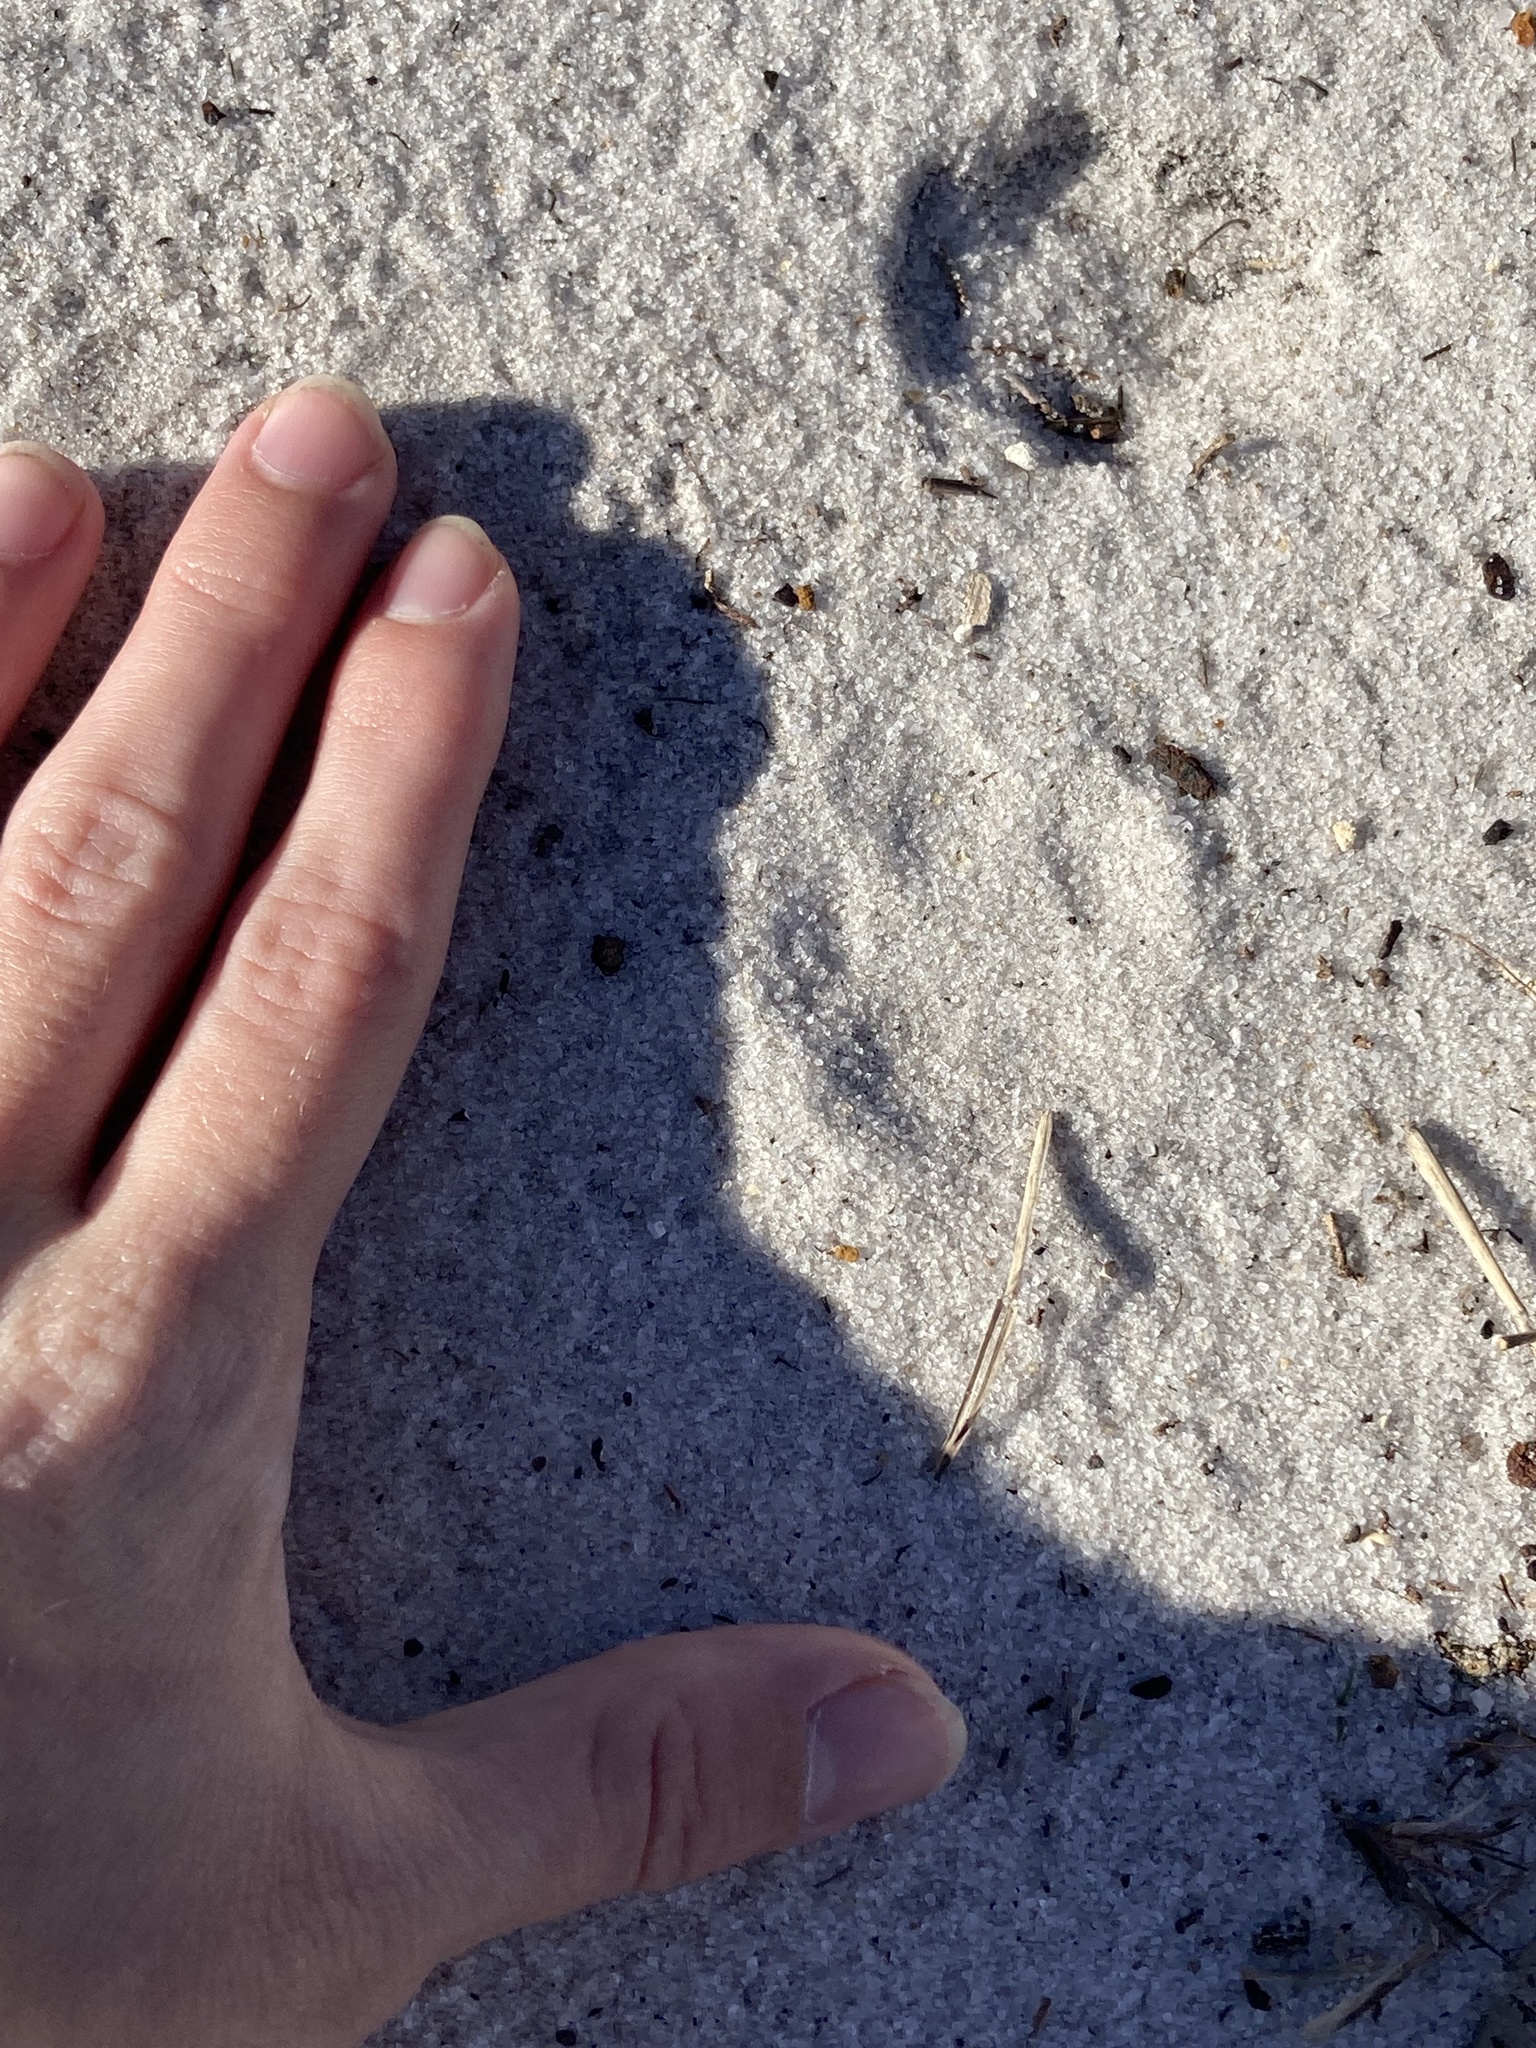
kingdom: Animalia
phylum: Chordata
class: Mammalia
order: Carnivora
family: Canidae
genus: Urocyon
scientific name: Urocyon cinereoargenteus
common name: Gray fox
